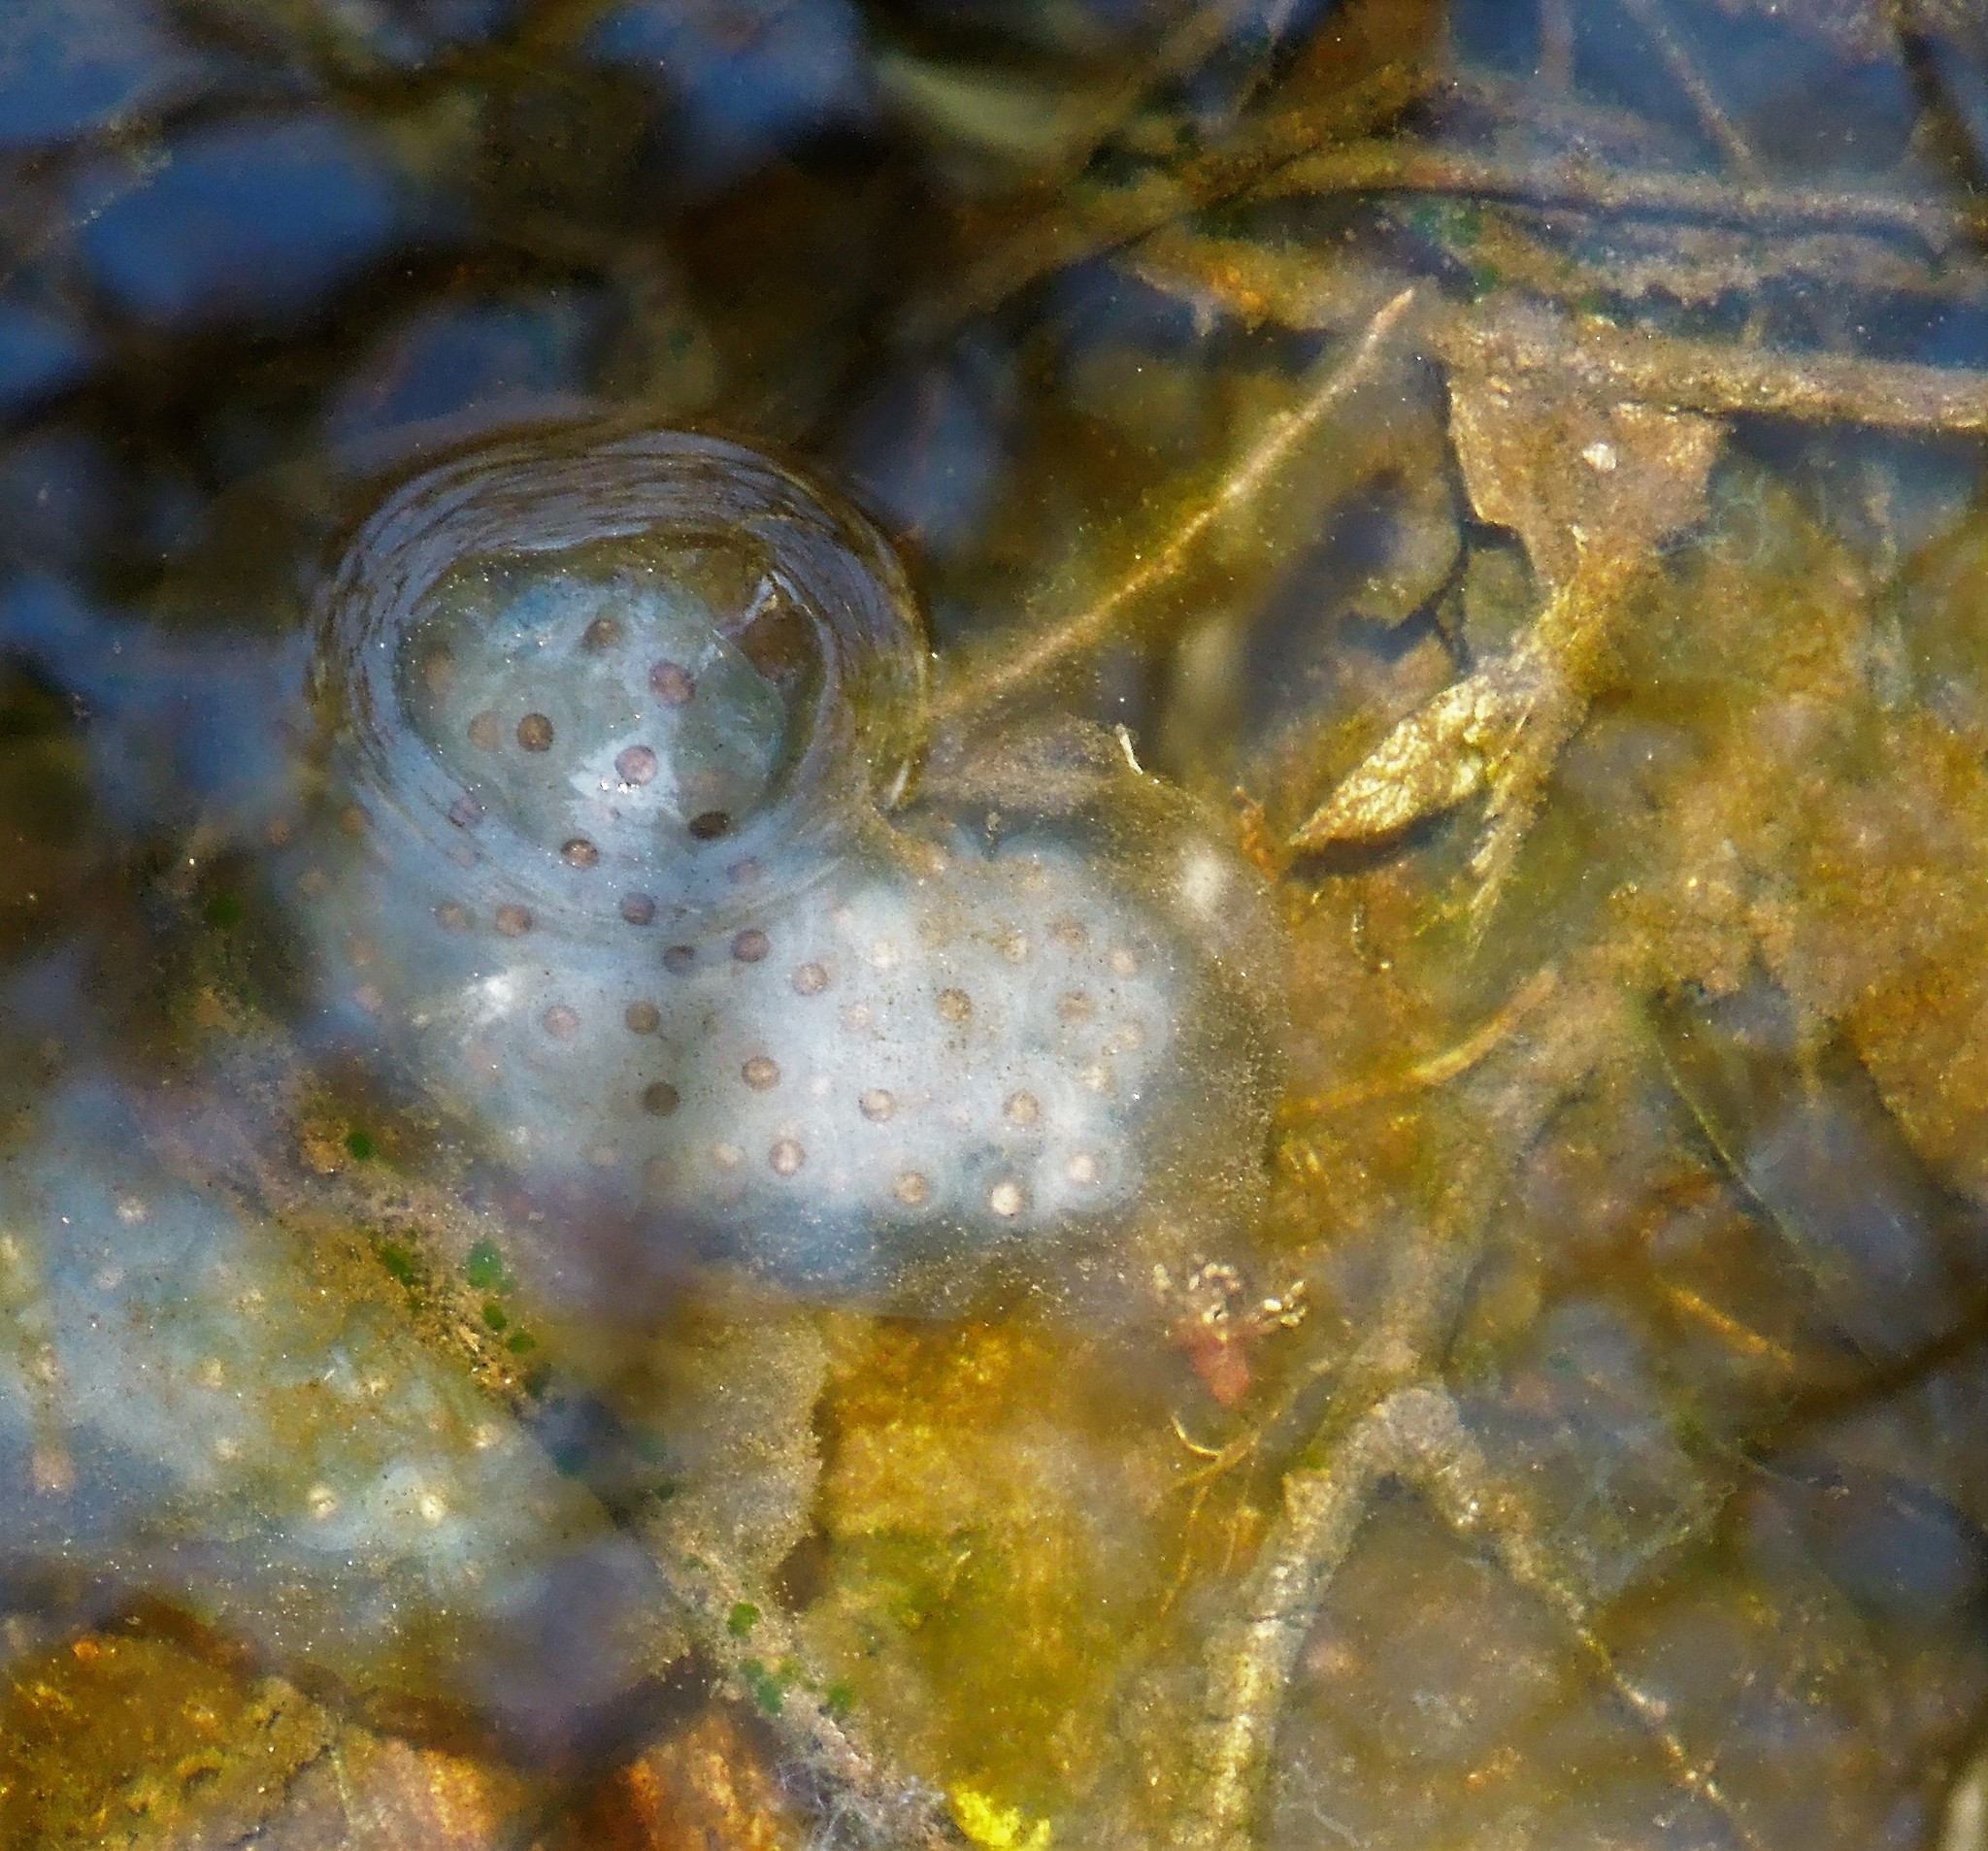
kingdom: Animalia
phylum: Chordata
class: Amphibia
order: Caudata
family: Ambystomatidae
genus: Ambystoma
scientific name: Ambystoma maculatum
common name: Spotted salamander
